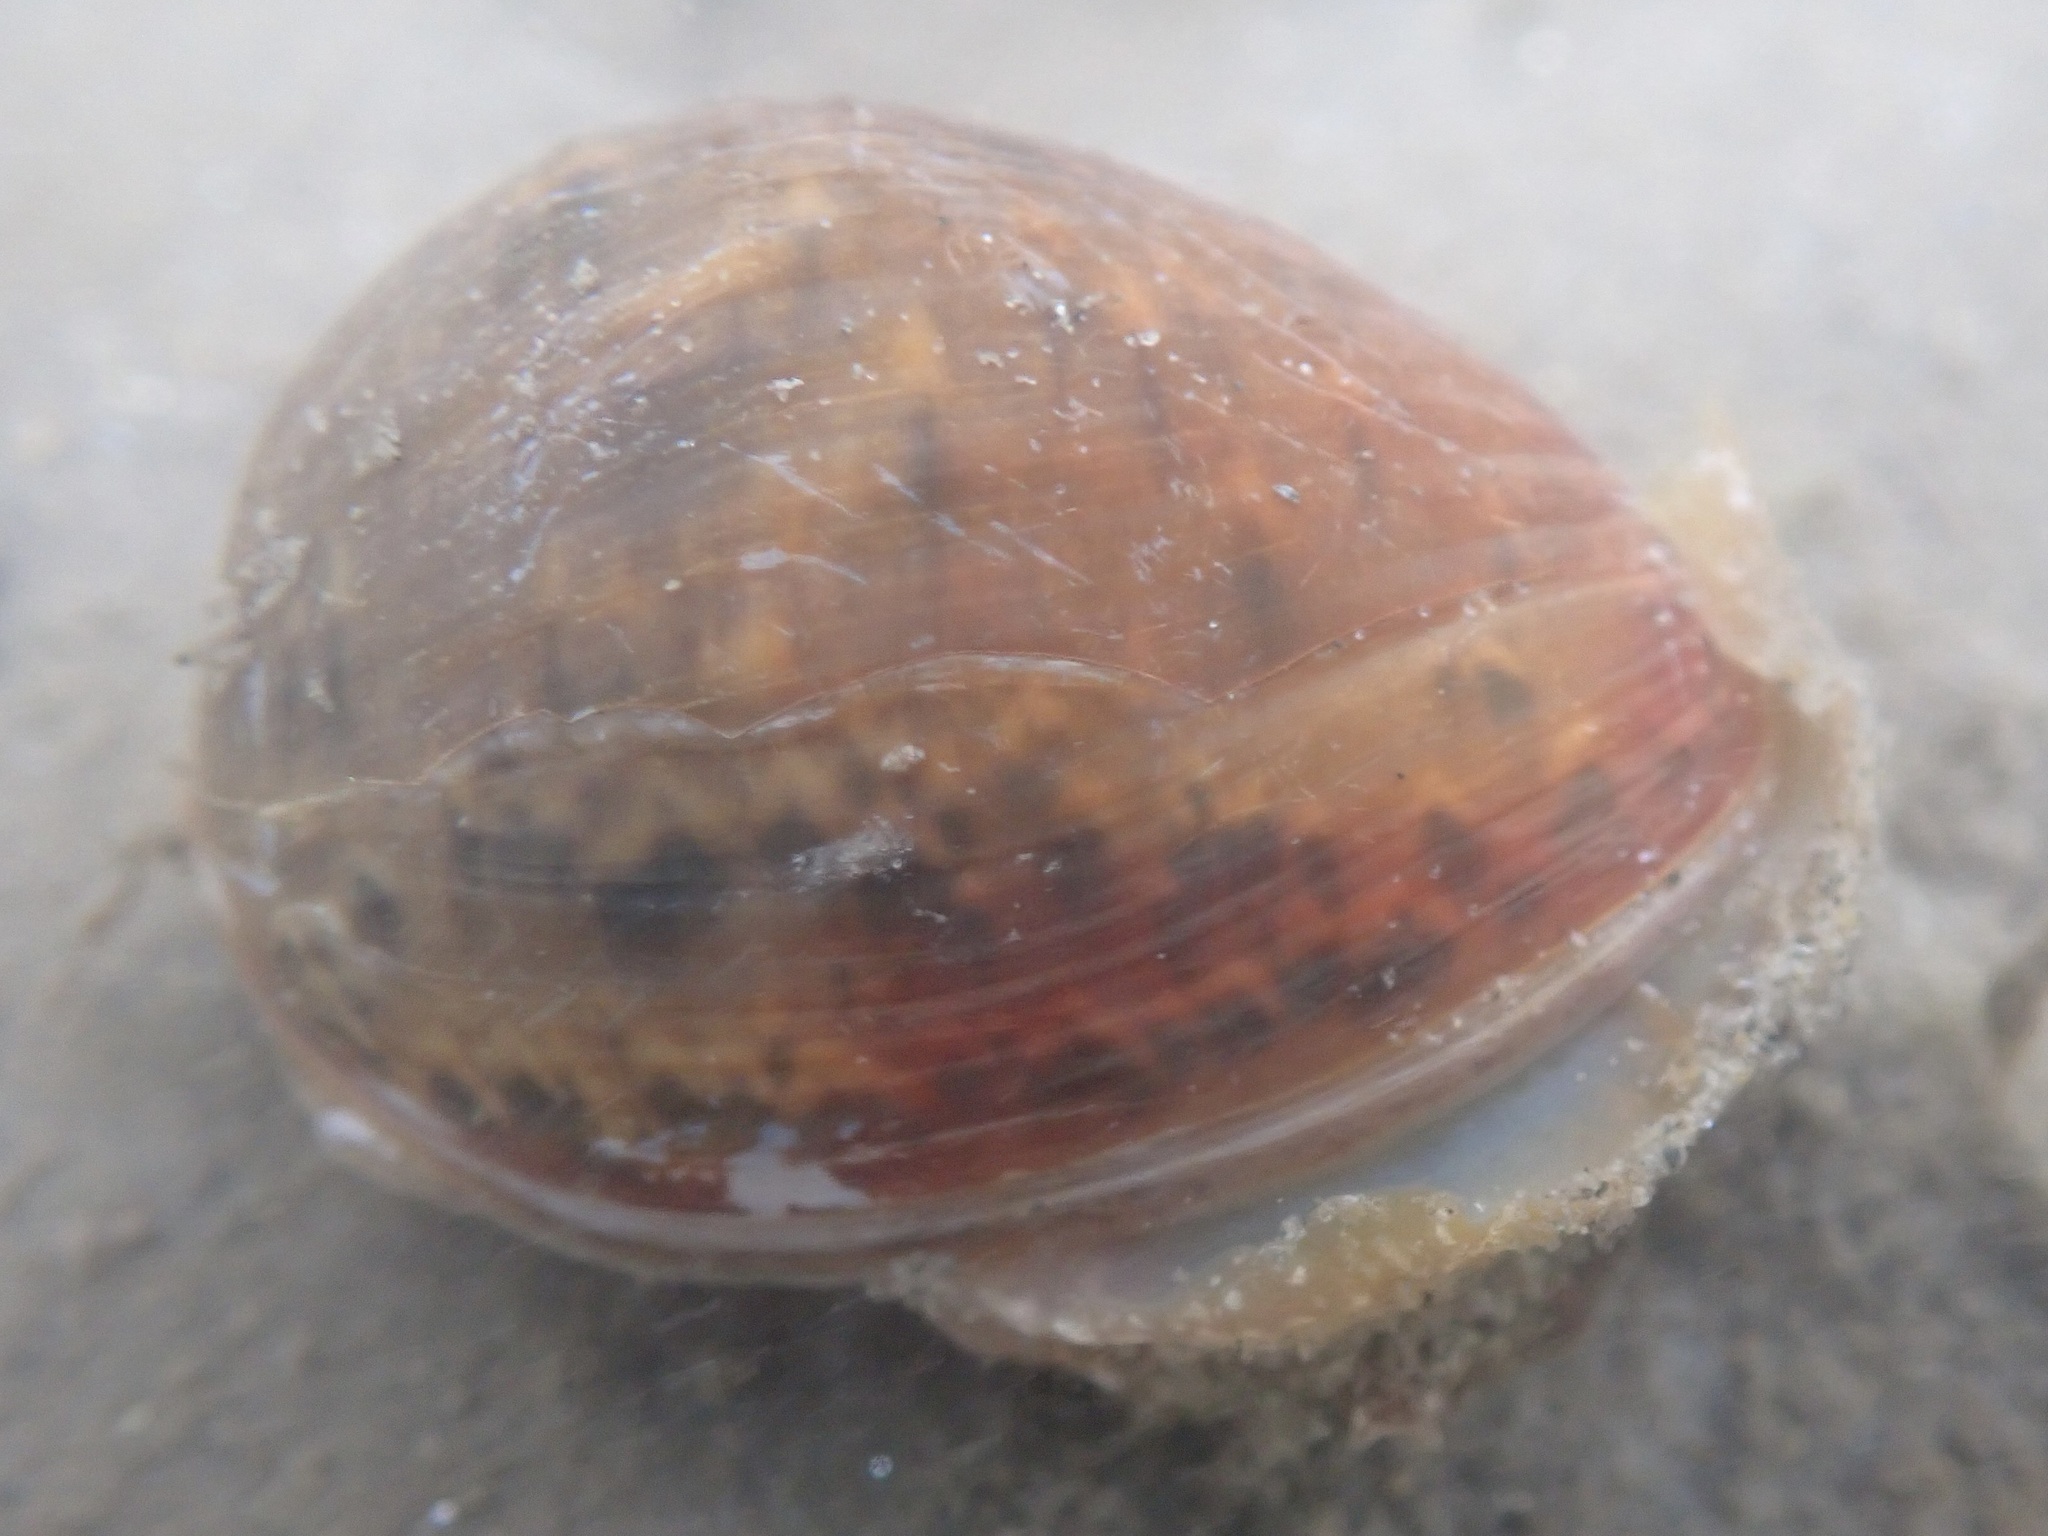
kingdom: Animalia
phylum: Mollusca
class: Gastropoda
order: Cephalaspidea
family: Bullidae
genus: Bulla
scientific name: Bulla gouldiana
